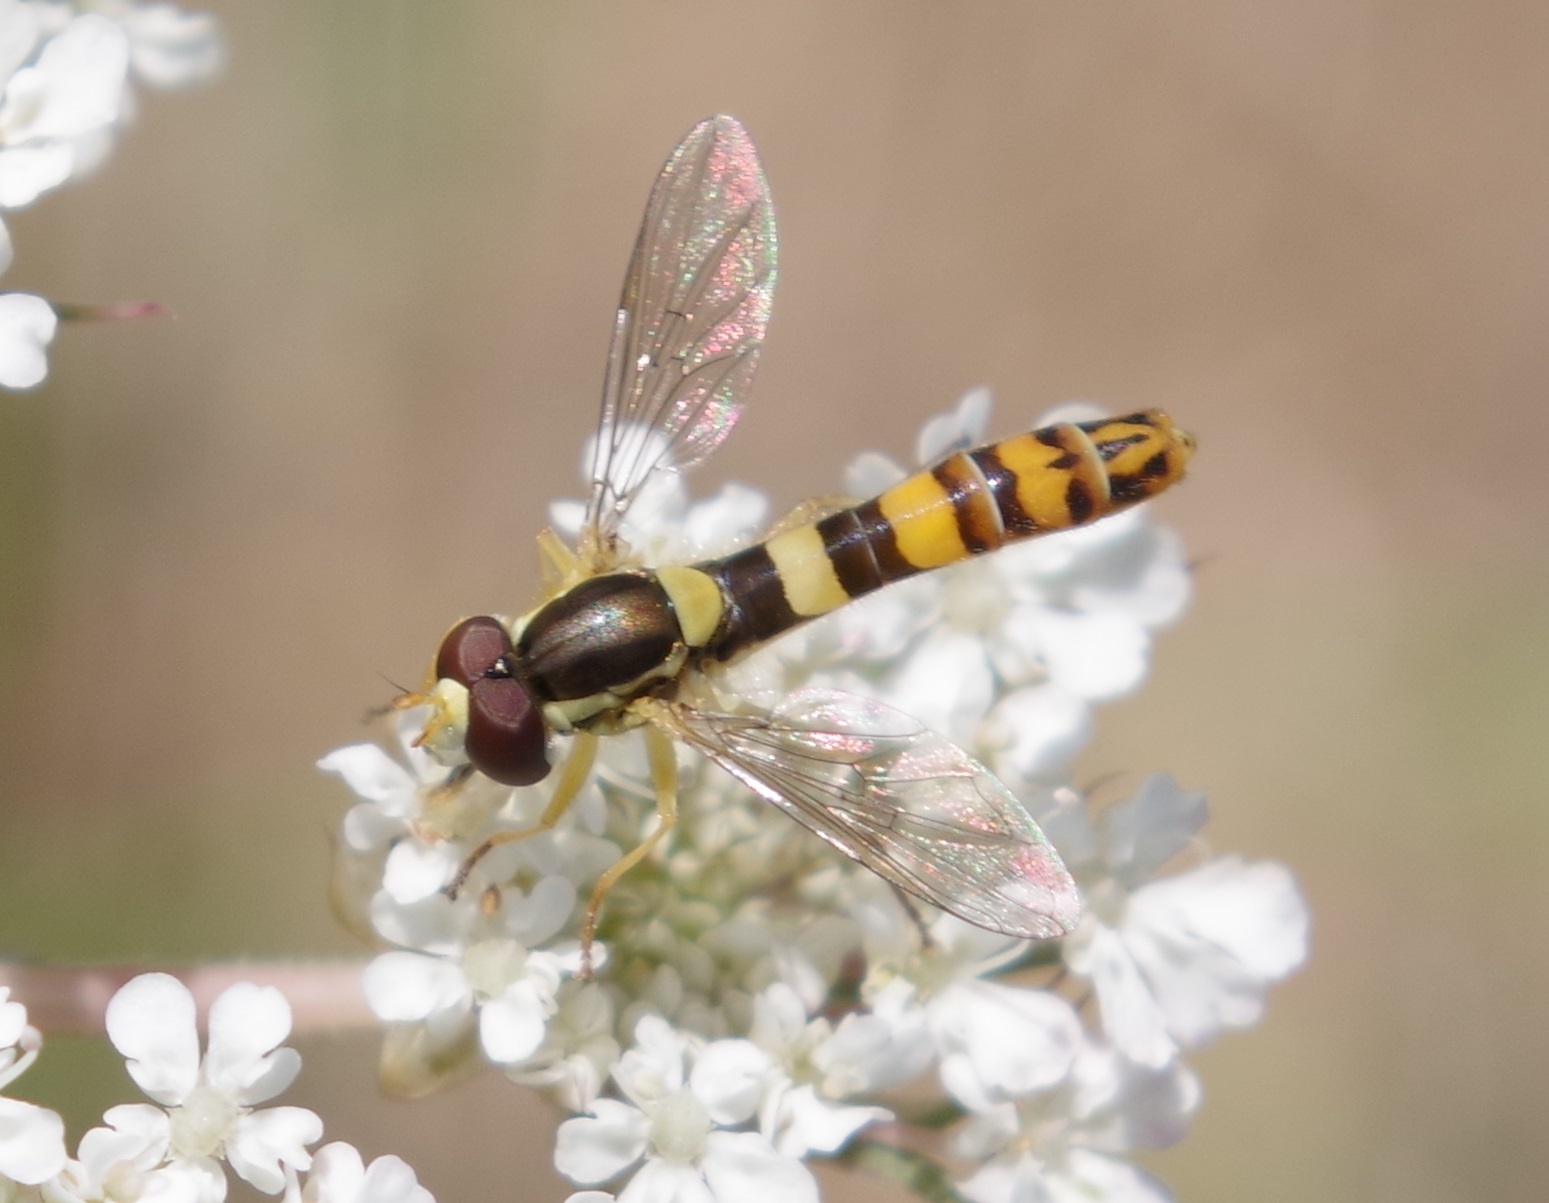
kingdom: Animalia
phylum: Arthropoda
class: Insecta
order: Diptera
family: Syrphidae
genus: Sphaerophoria
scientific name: Sphaerophoria scripta
